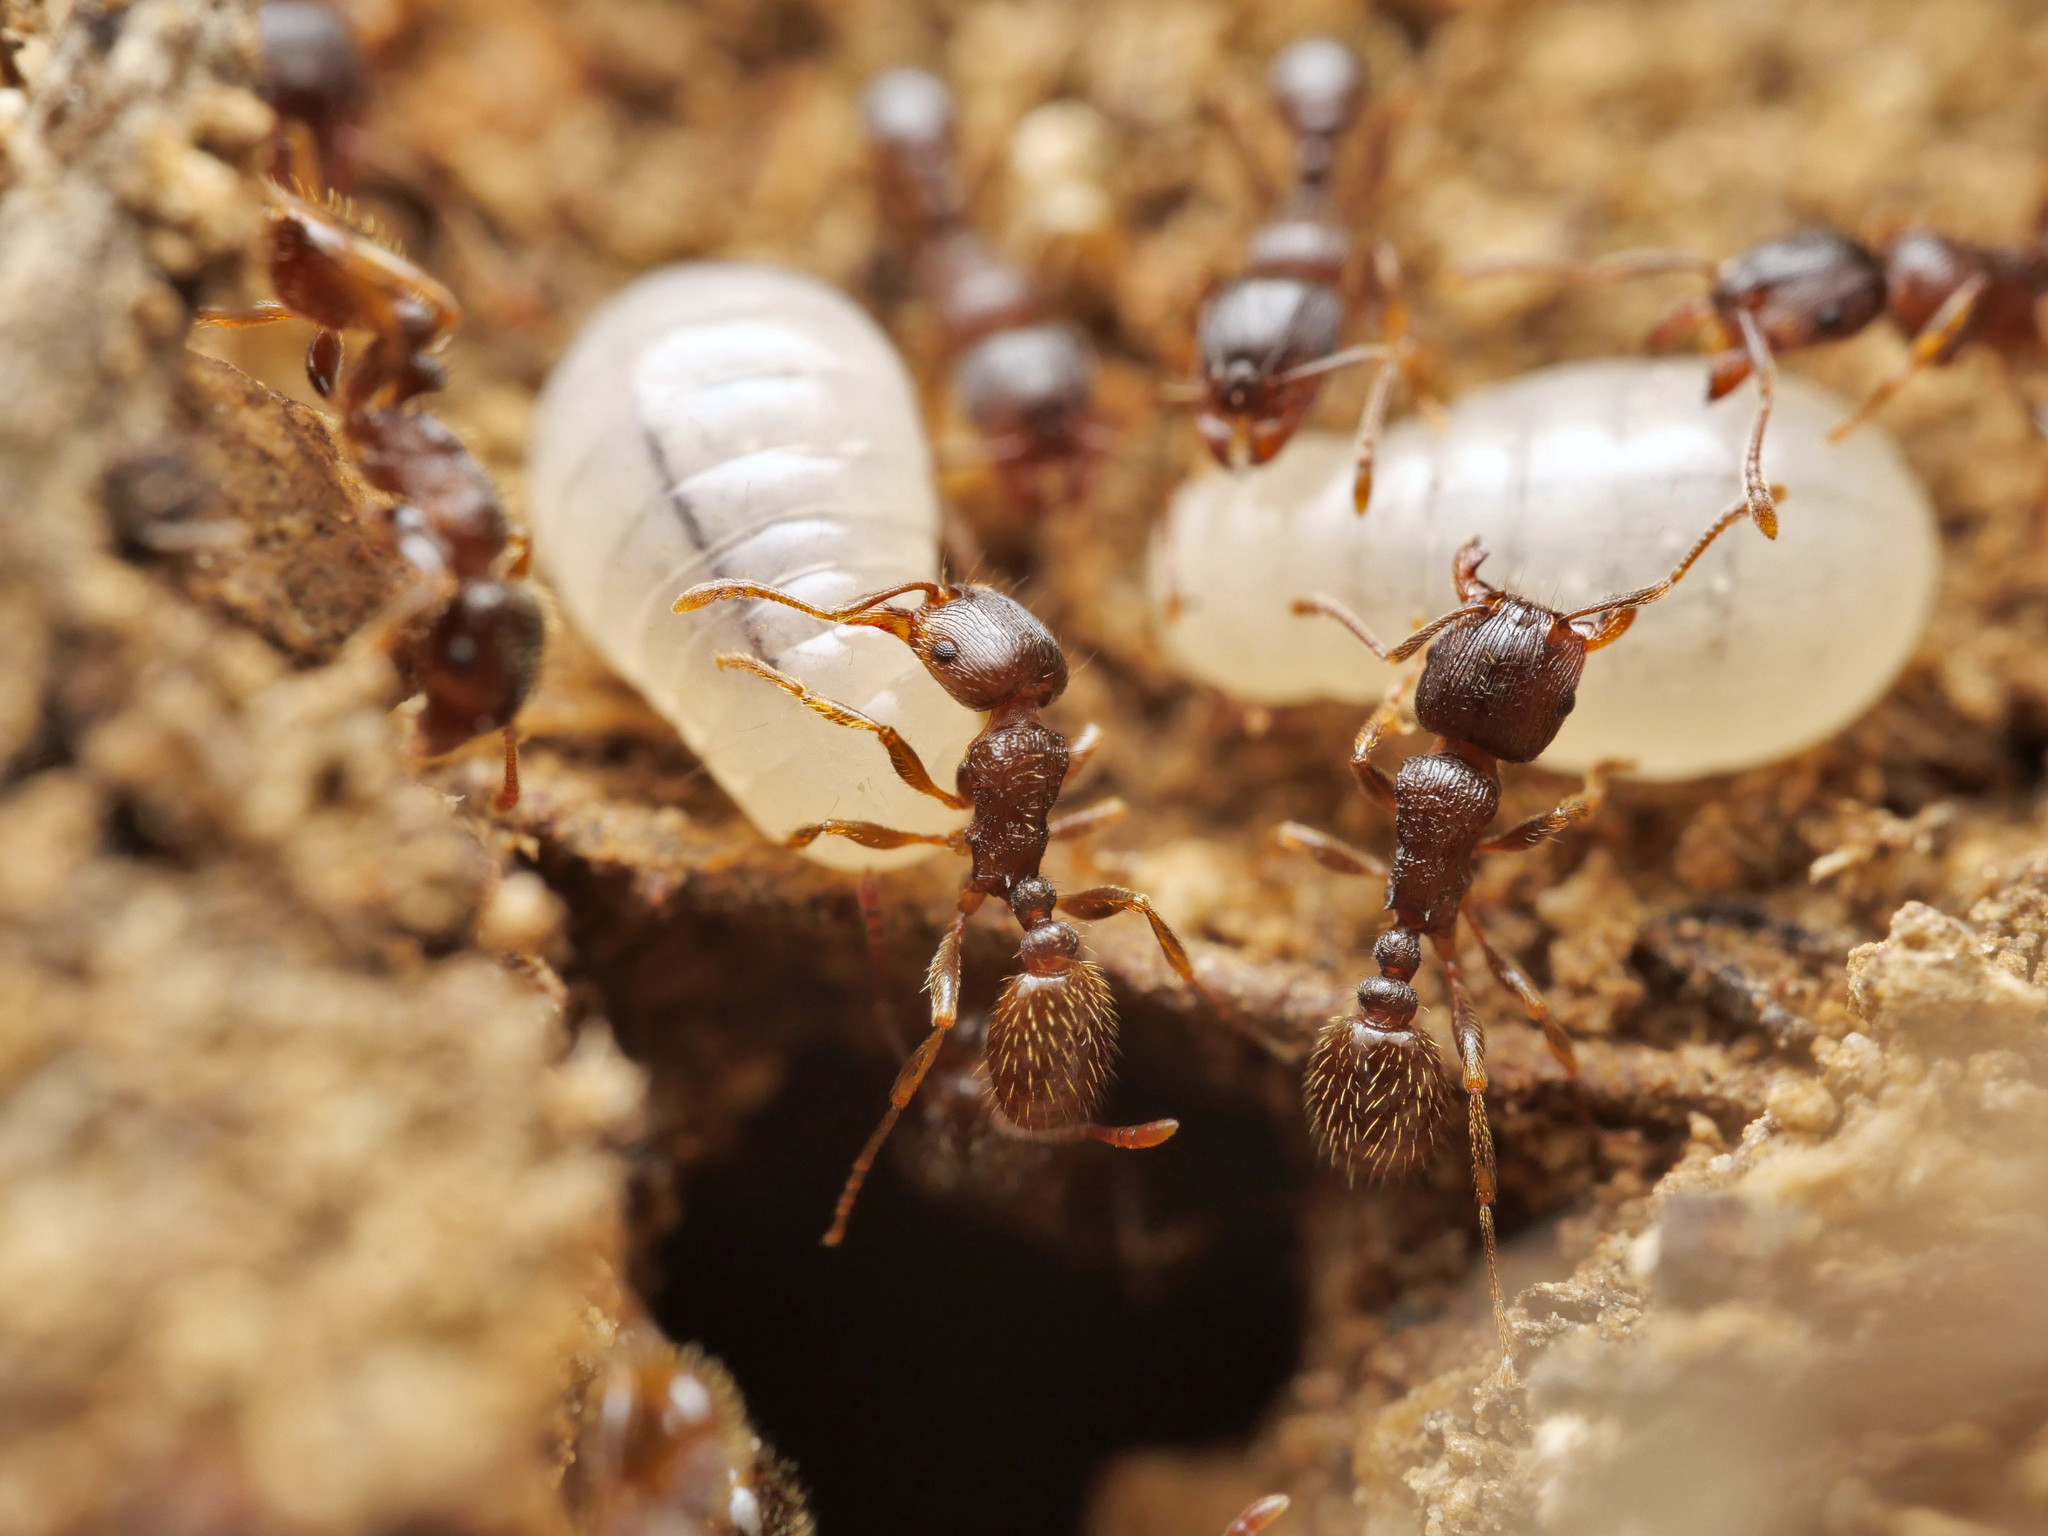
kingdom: Animalia
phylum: Arthropoda
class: Insecta
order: Hymenoptera
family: Formicidae
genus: Tetramorium
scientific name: Tetramorium
